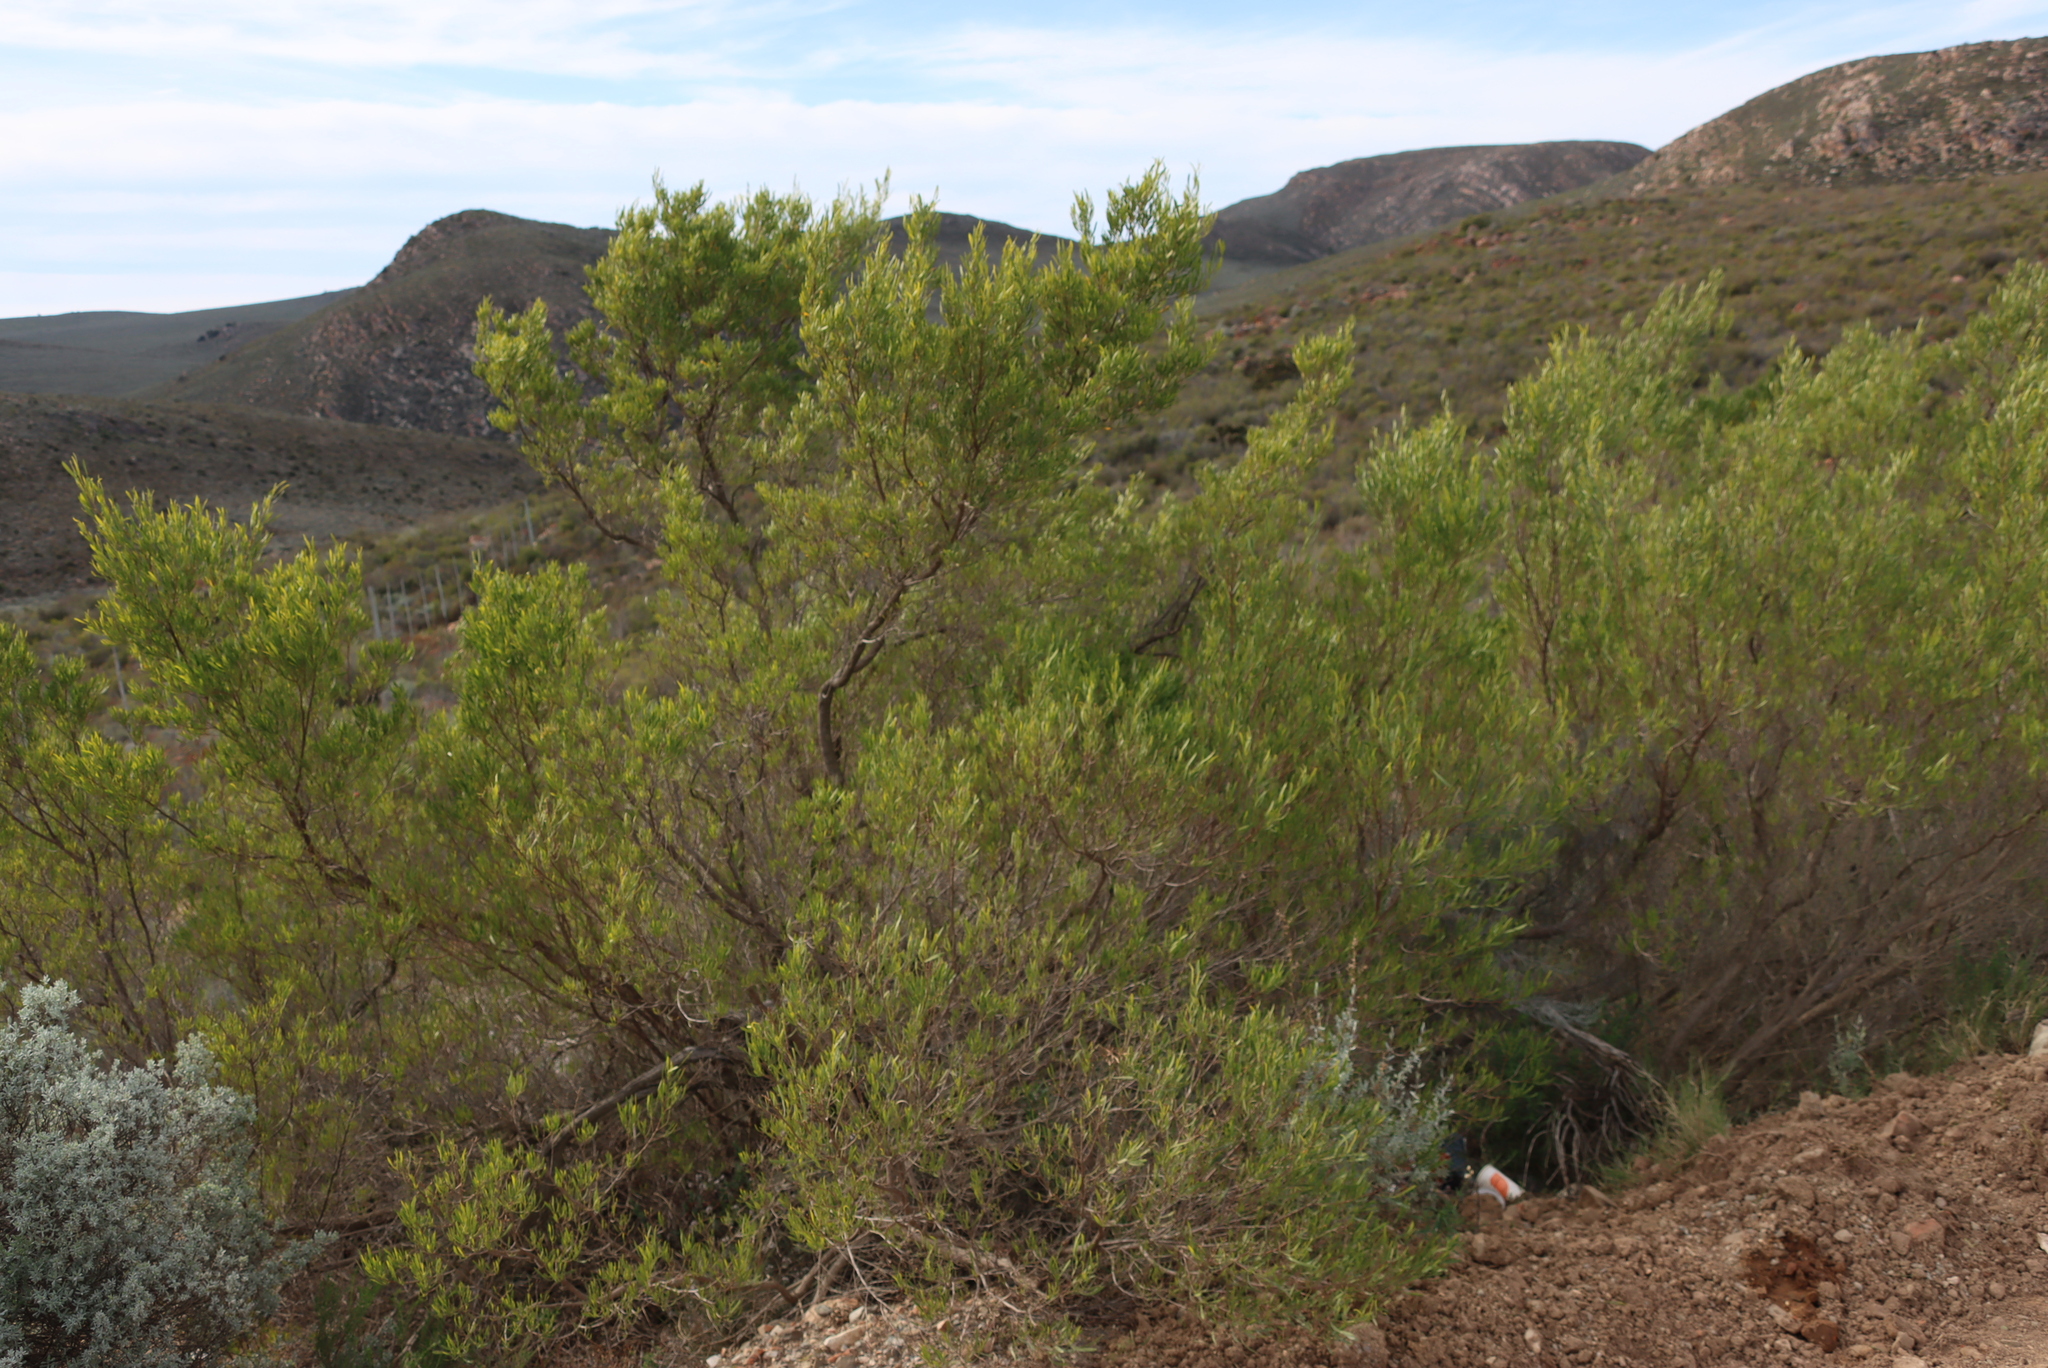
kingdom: Plantae
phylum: Tracheophyta
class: Magnoliopsida
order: Sapindales
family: Sapindaceae
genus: Dodonaea
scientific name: Dodonaea viscosa
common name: Hopbush
